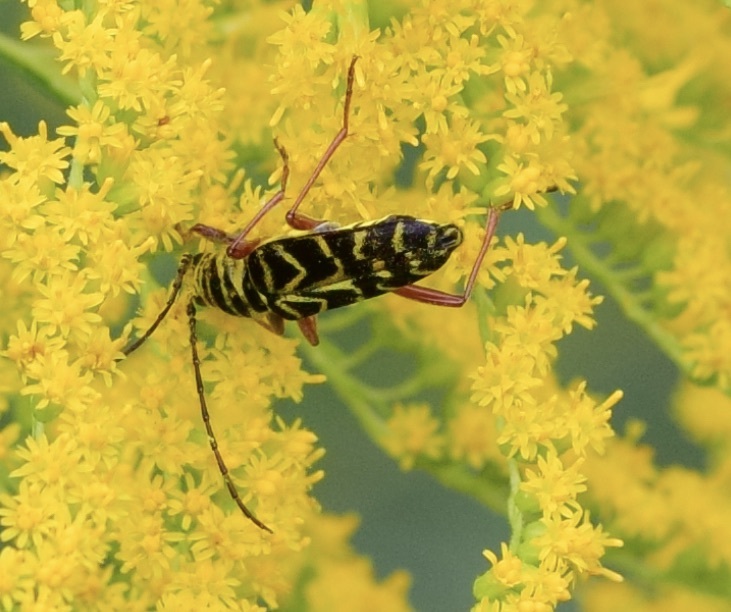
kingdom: Animalia
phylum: Arthropoda
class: Insecta
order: Coleoptera
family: Cerambycidae
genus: Megacyllene
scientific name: Megacyllene robiniae
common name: Locust borer
